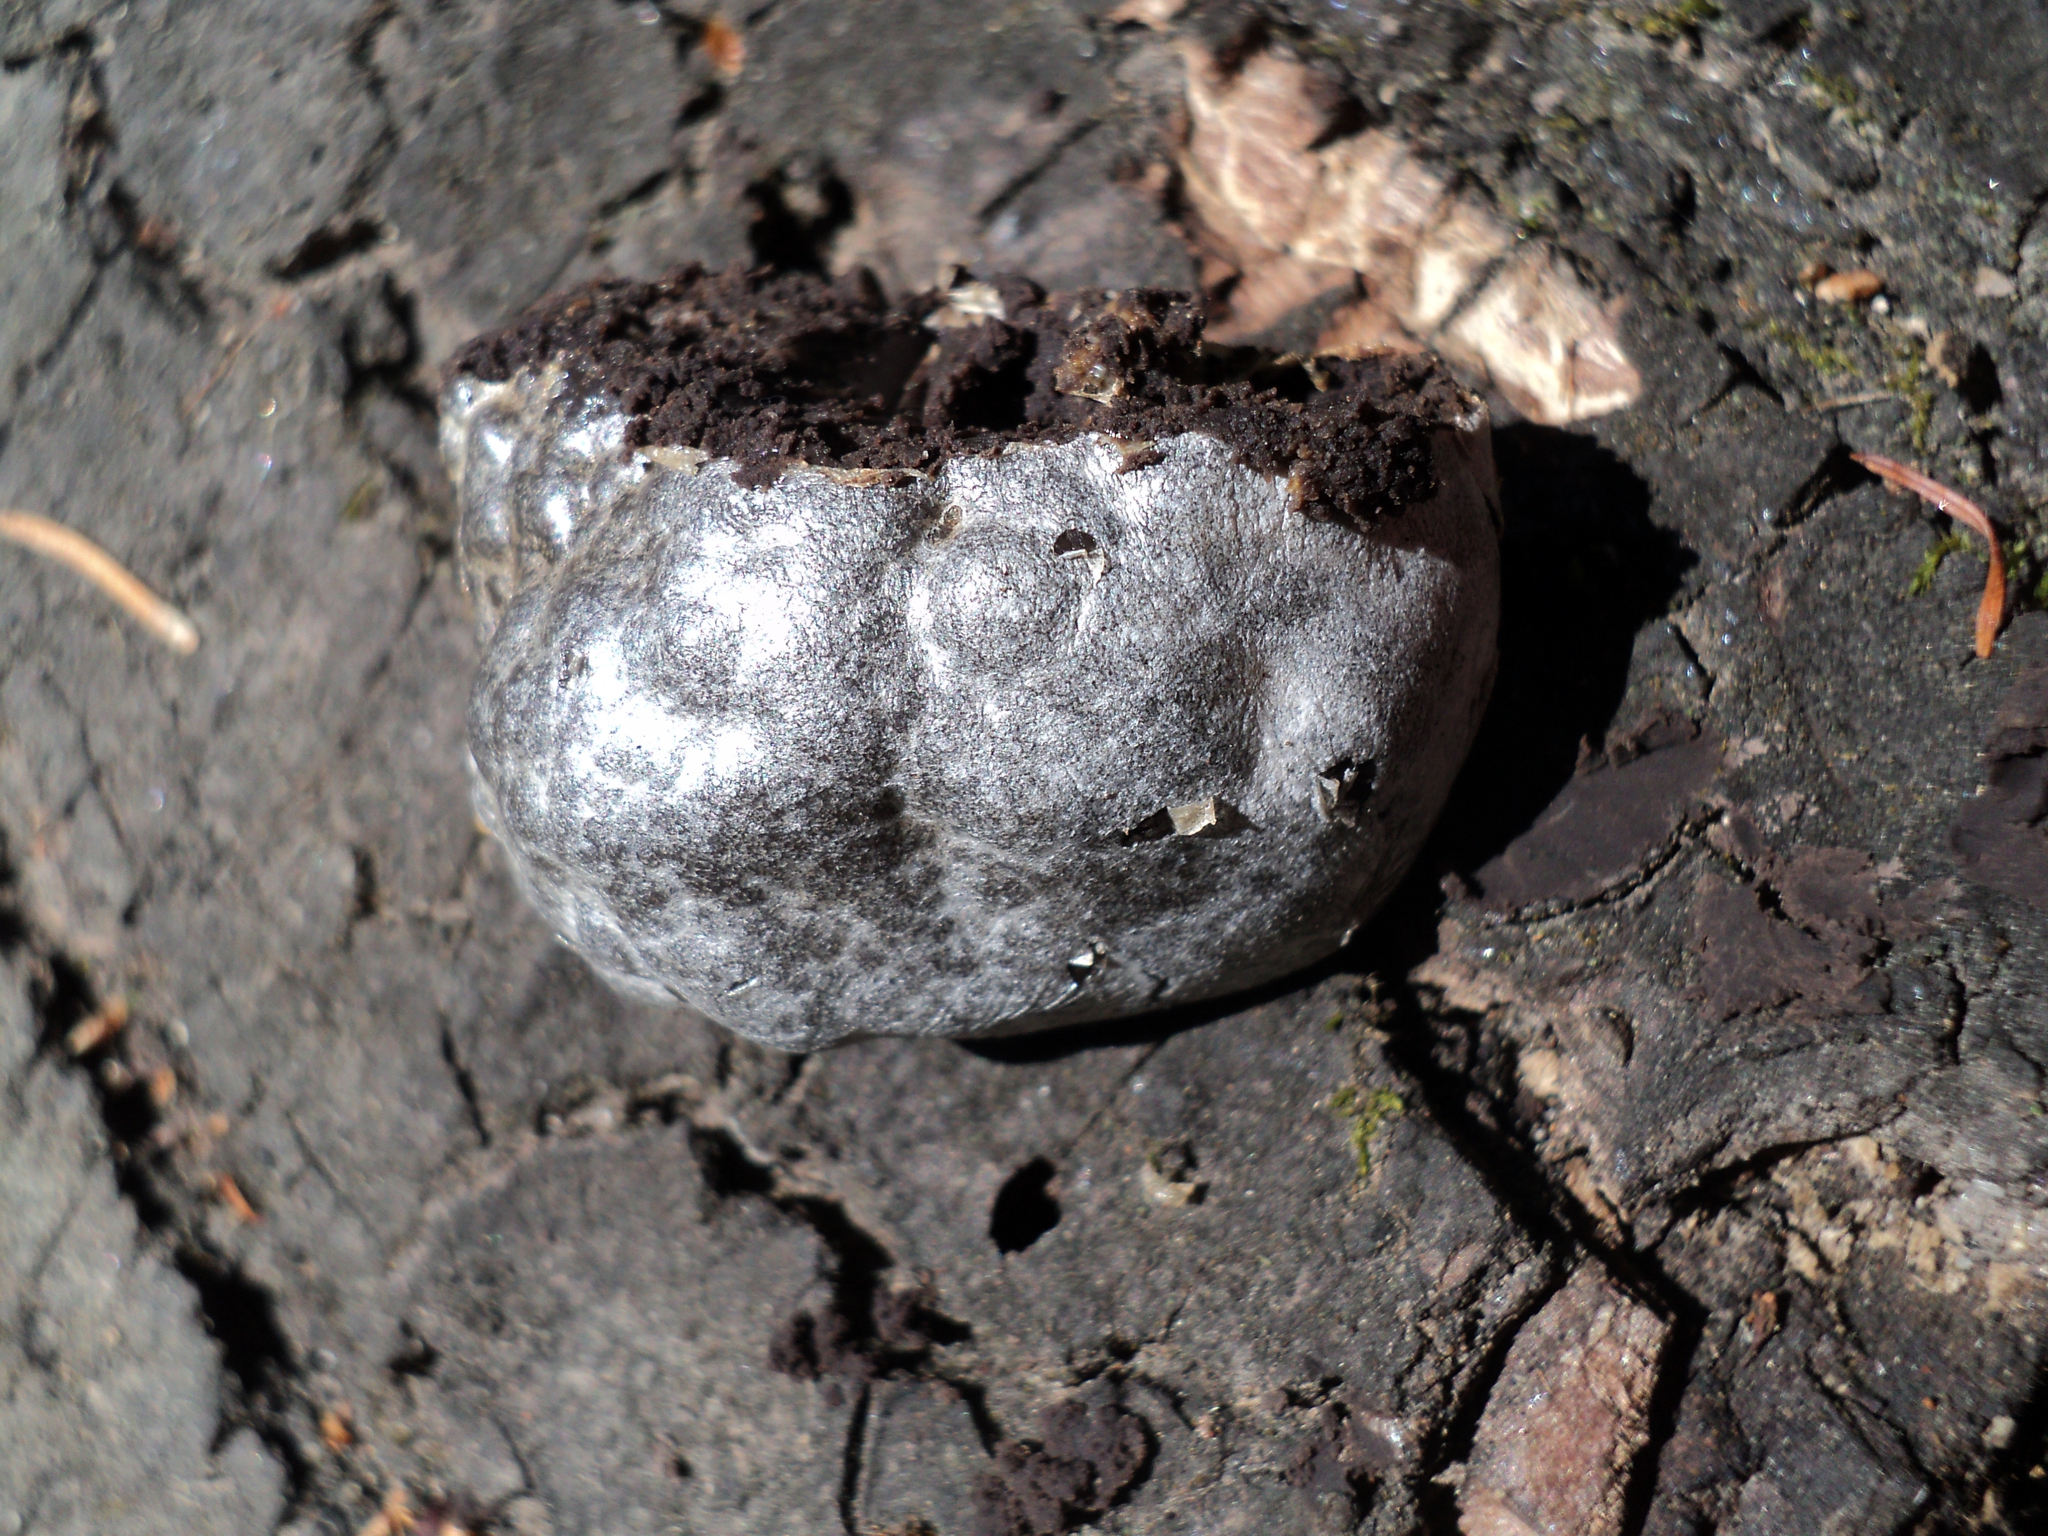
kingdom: Protozoa
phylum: Mycetozoa
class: Myxomycetes
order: Cribrariales
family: Tubiferaceae
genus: Reticularia
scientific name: Reticularia lycoperdon
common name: False puffball
